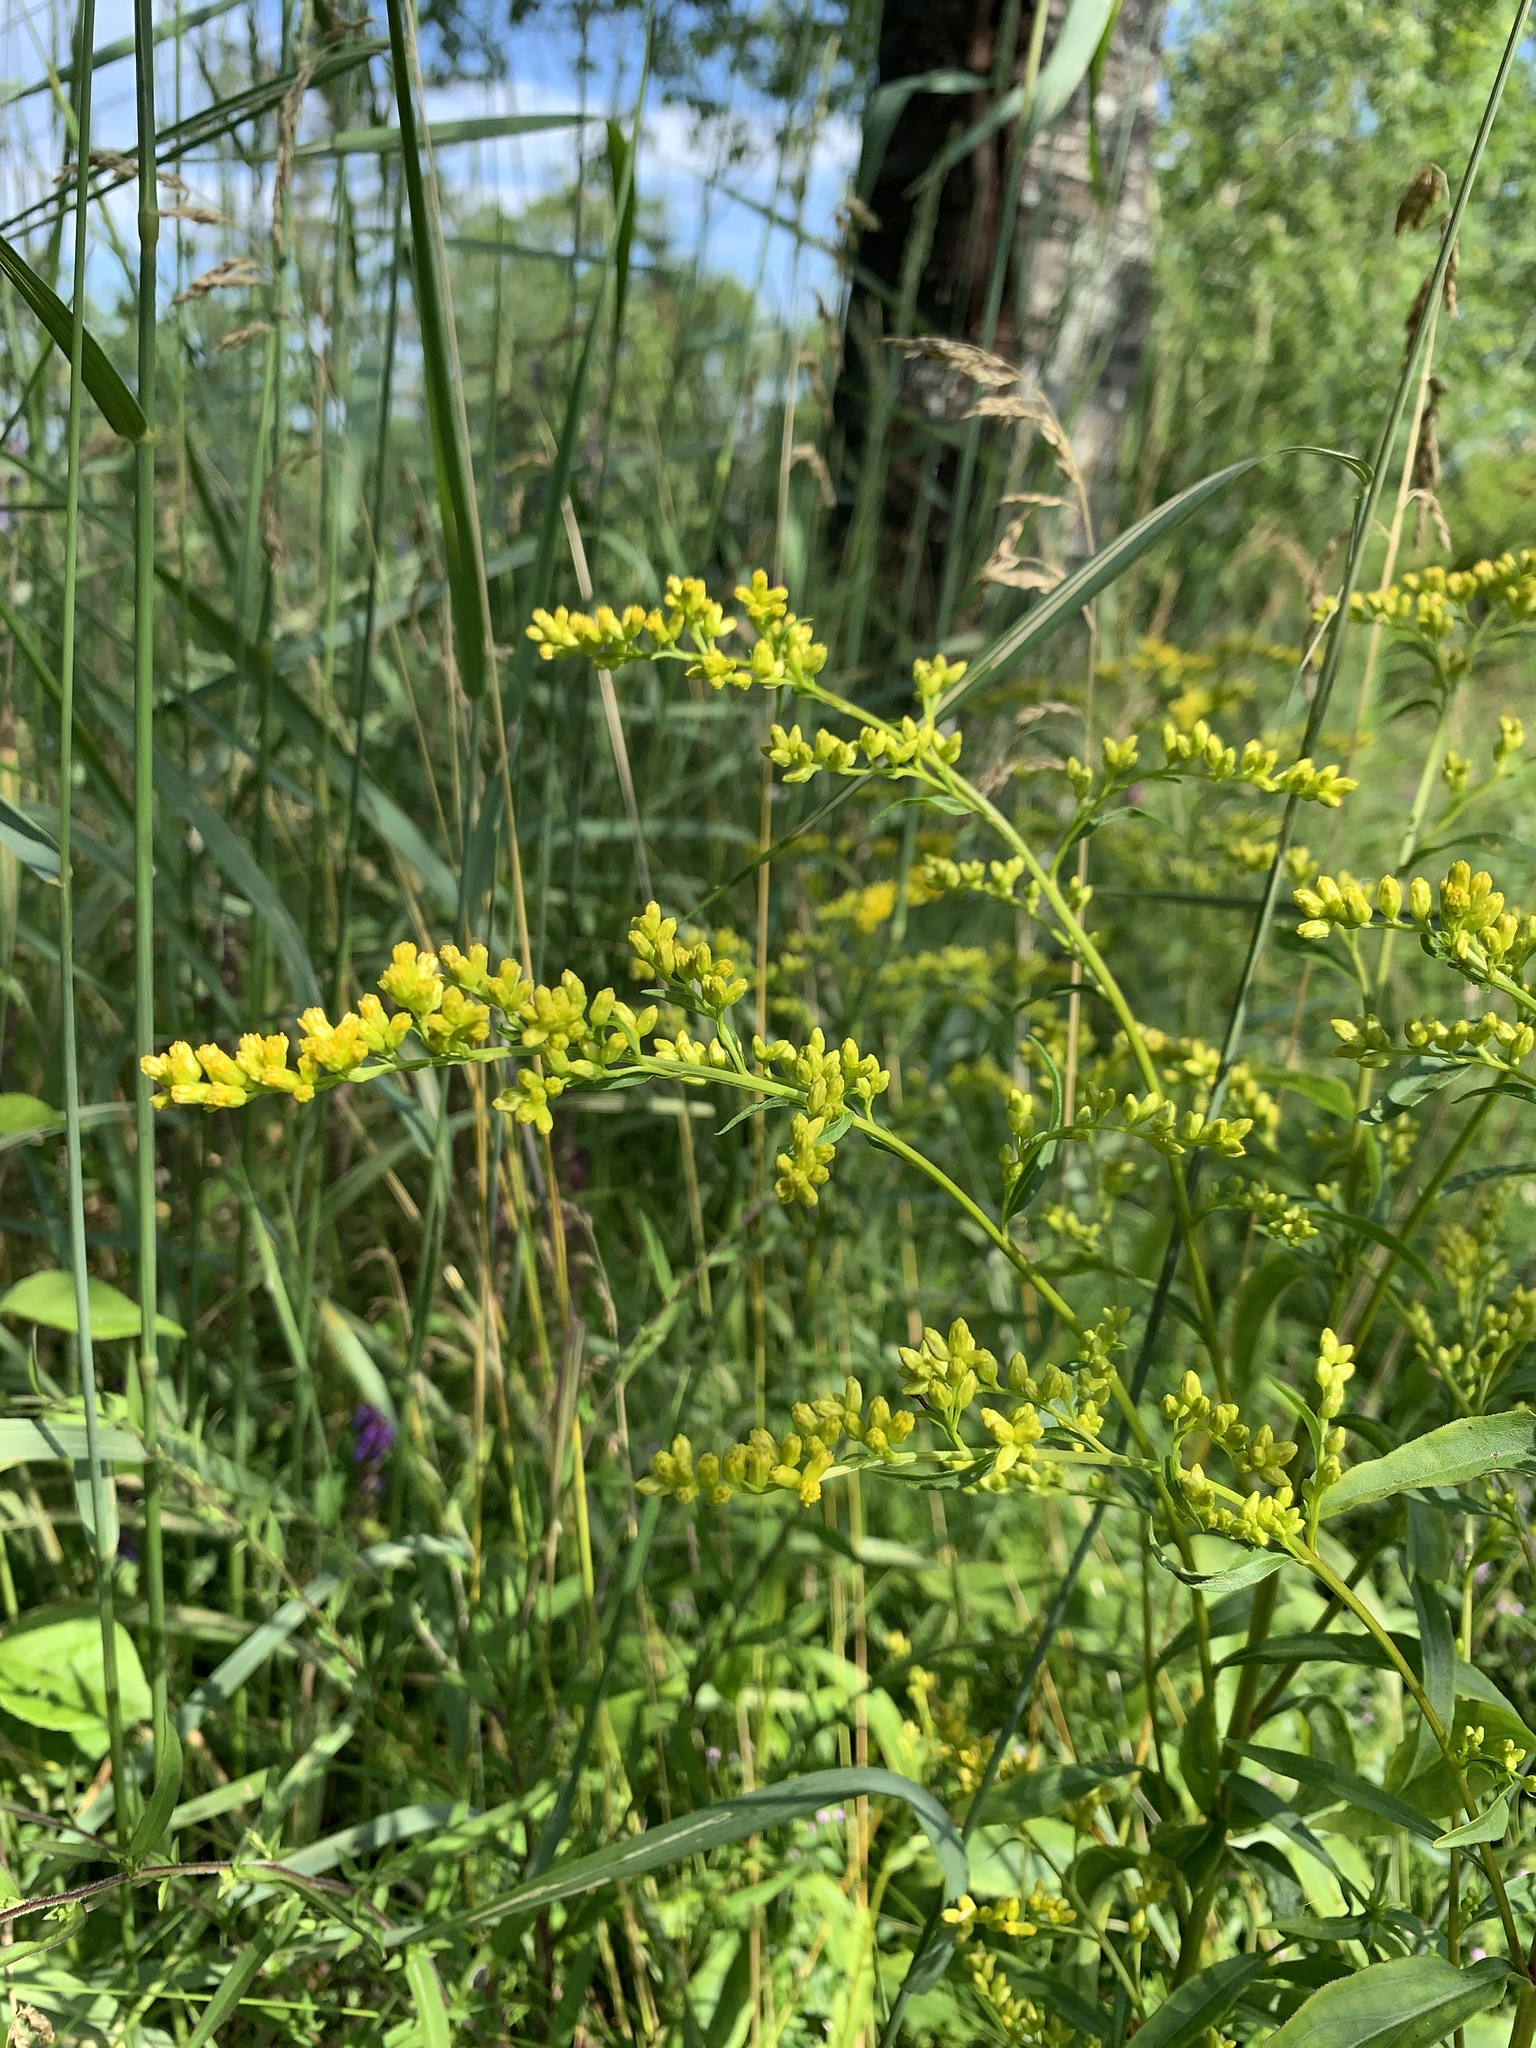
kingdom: Plantae
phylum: Tracheophyta
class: Magnoliopsida
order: Asterales
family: Asteraceae
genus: Solidago
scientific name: Solidago juncea
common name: Early goldenrod
